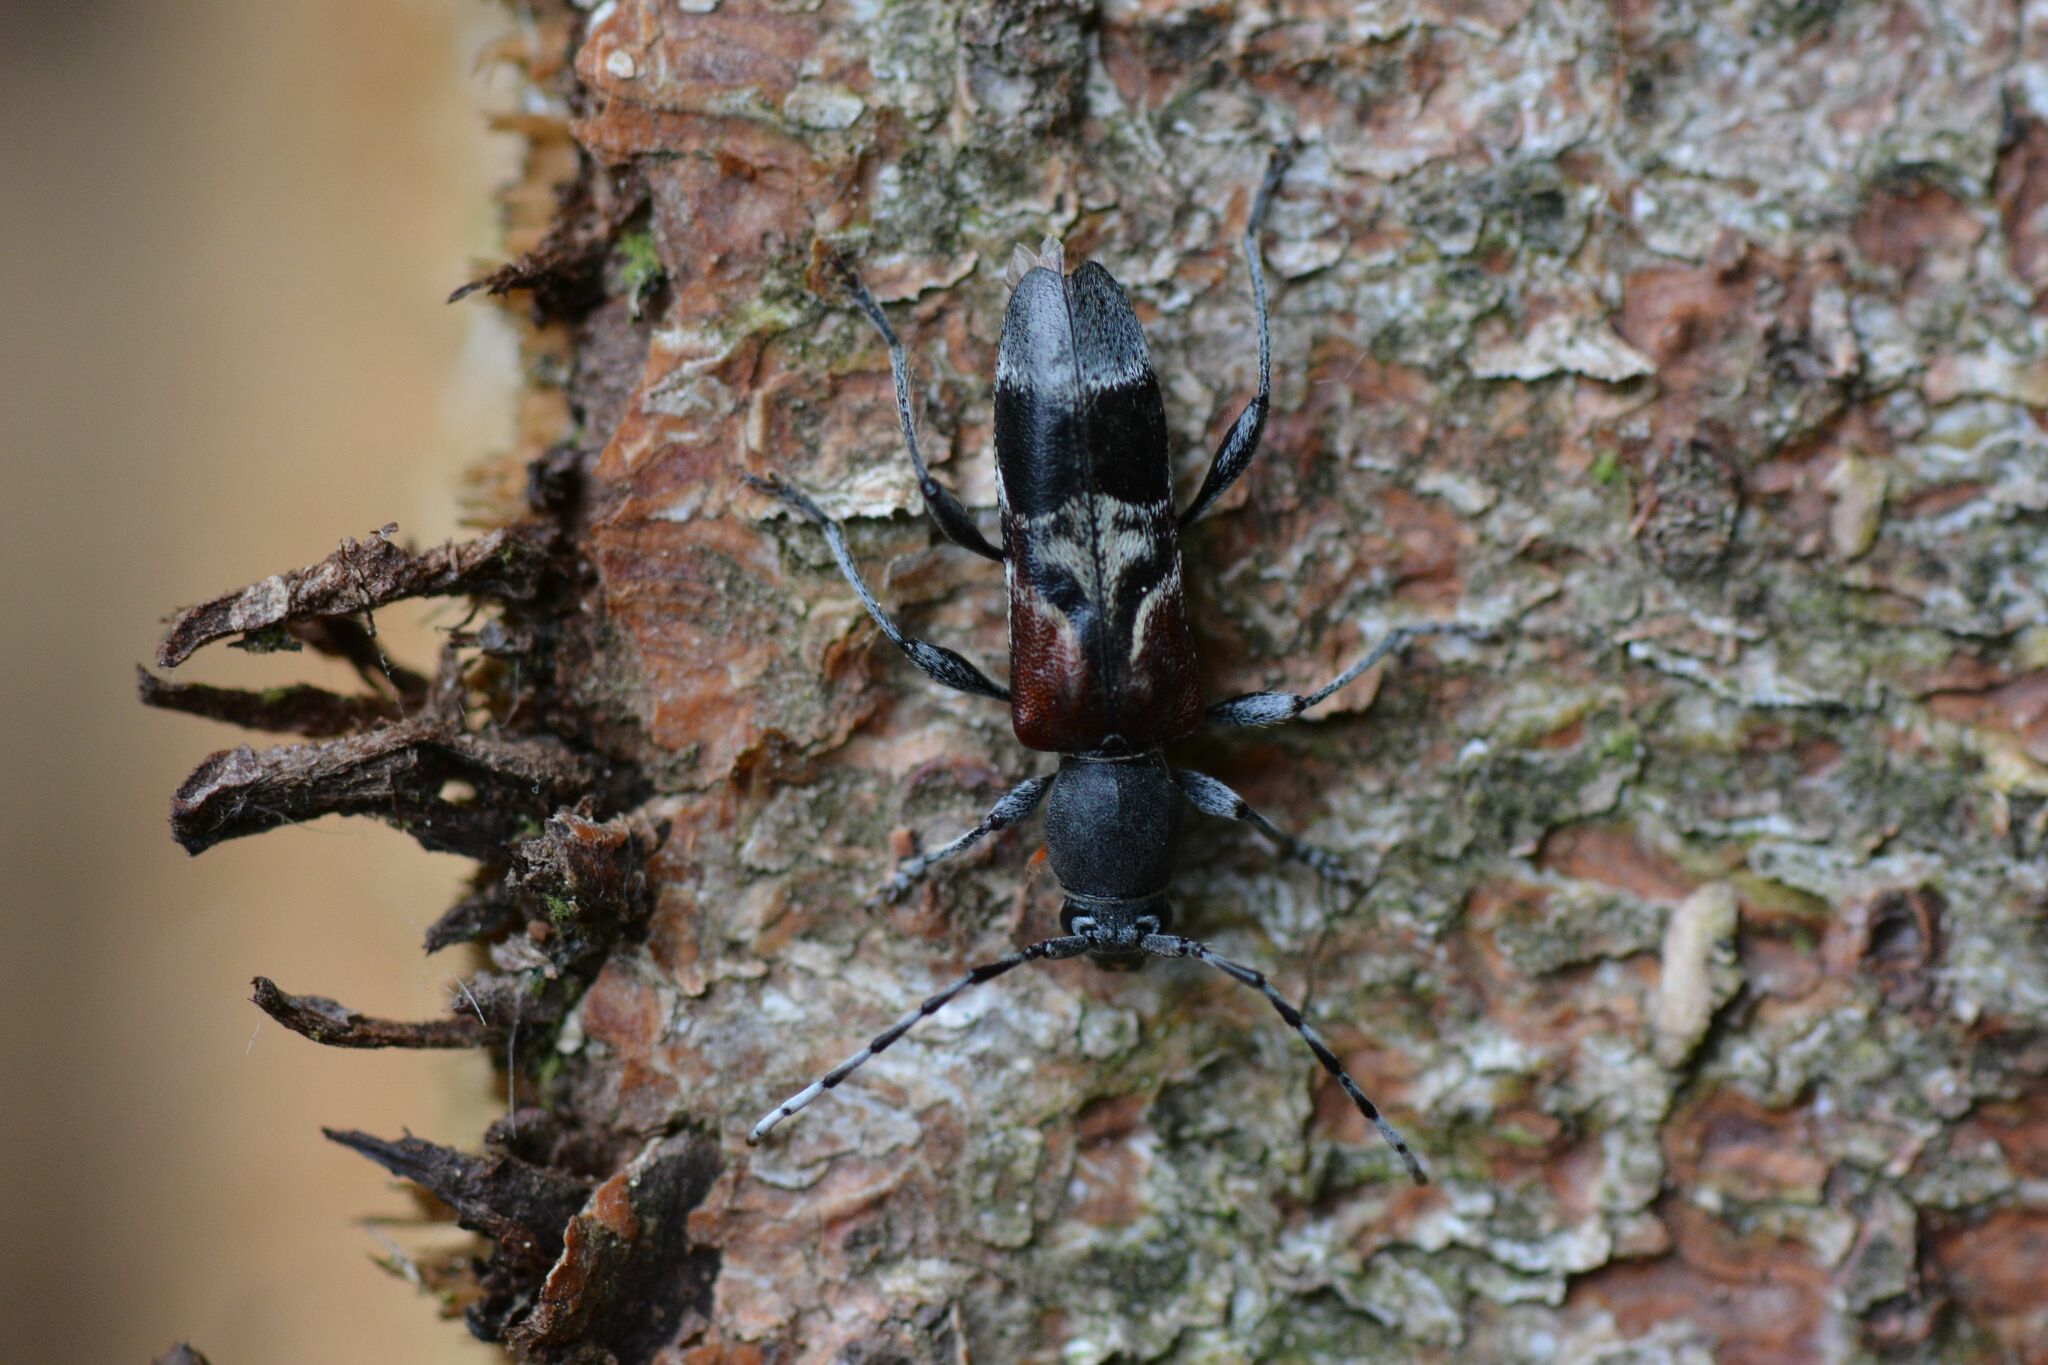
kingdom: Animalia
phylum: Arthropoda
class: Insecta
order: Coleoptera
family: Cerambycidae
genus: Anaglyptus
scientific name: Anaglyptus mysticus
